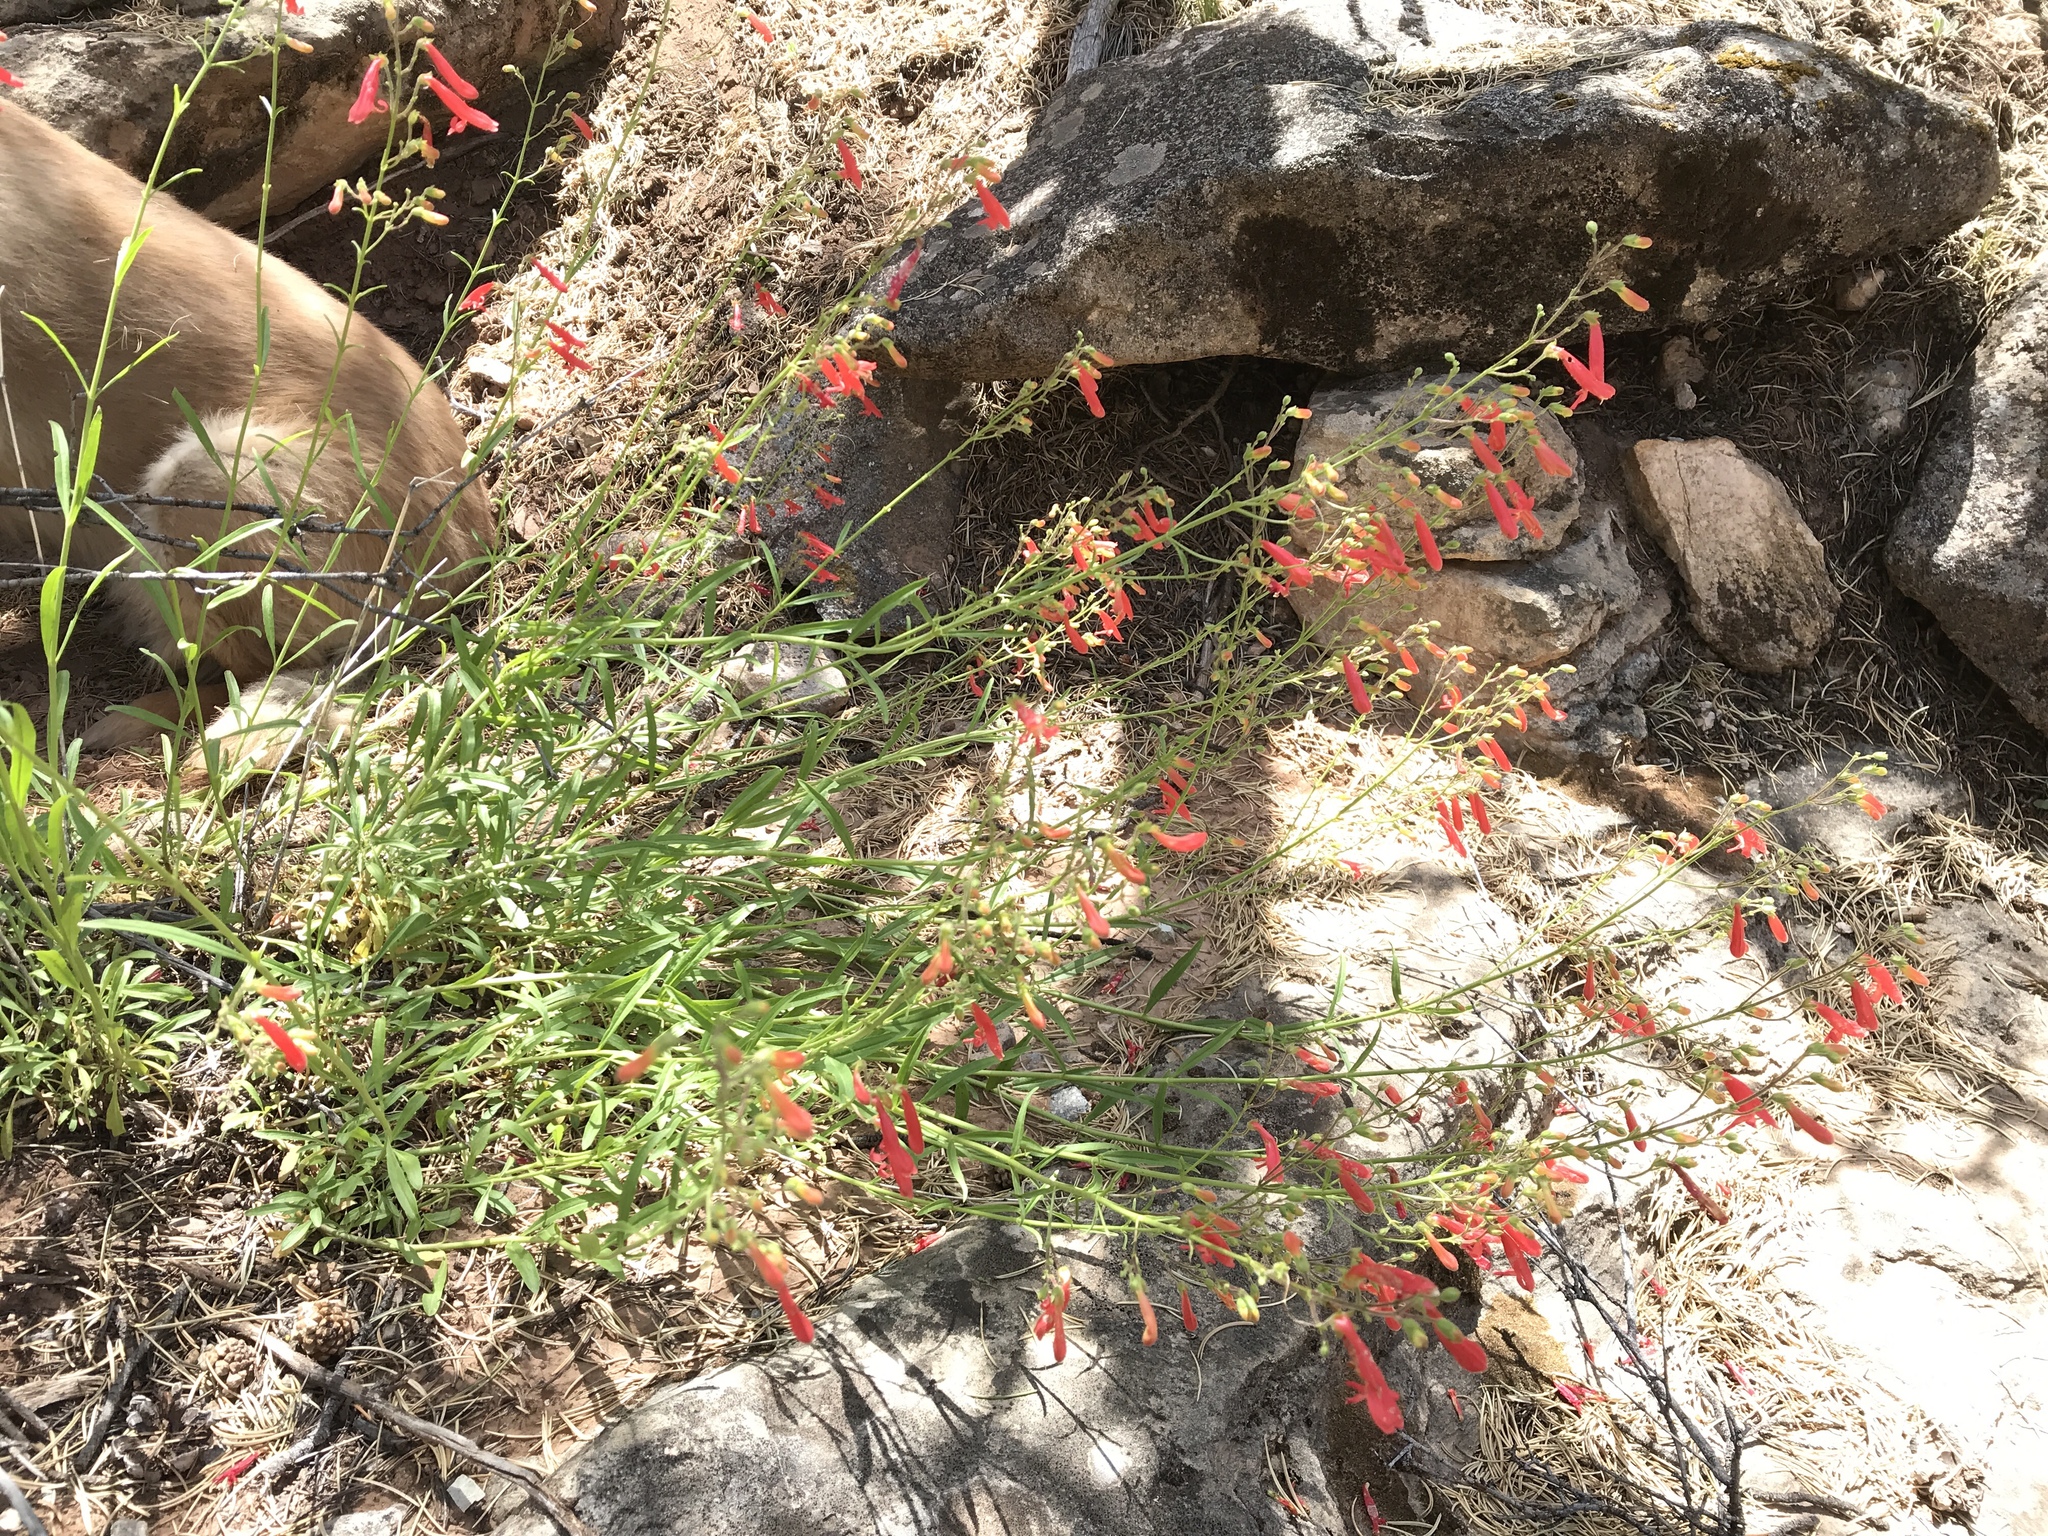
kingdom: Plantae
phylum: Tracheophyta
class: Magnoliopsida
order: Lamiales
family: Plantaginaceae
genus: Penstemon
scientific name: Penstemon rostriflorus
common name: Bridges's penstemon
